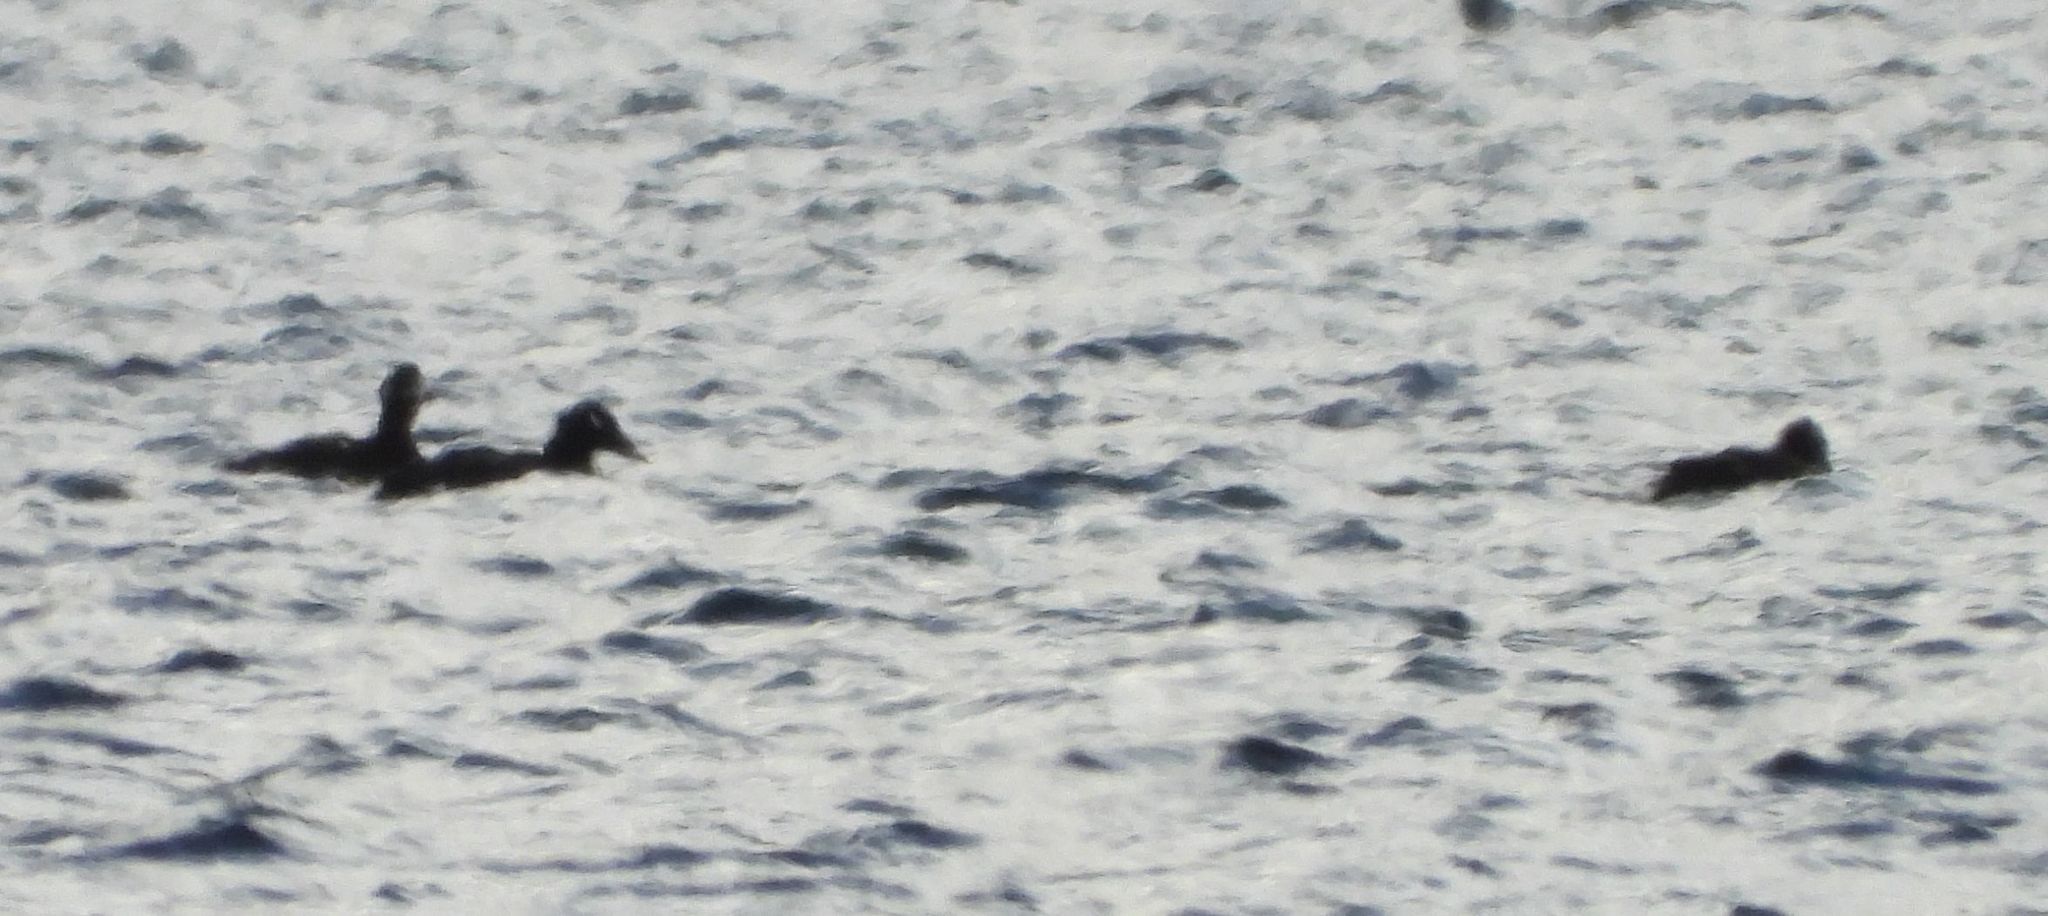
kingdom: Animalia
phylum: Chordata
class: Aves
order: Anseriformes
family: Anatidae
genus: Melanitta
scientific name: Melanitta deglandi
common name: White-winged scoter
